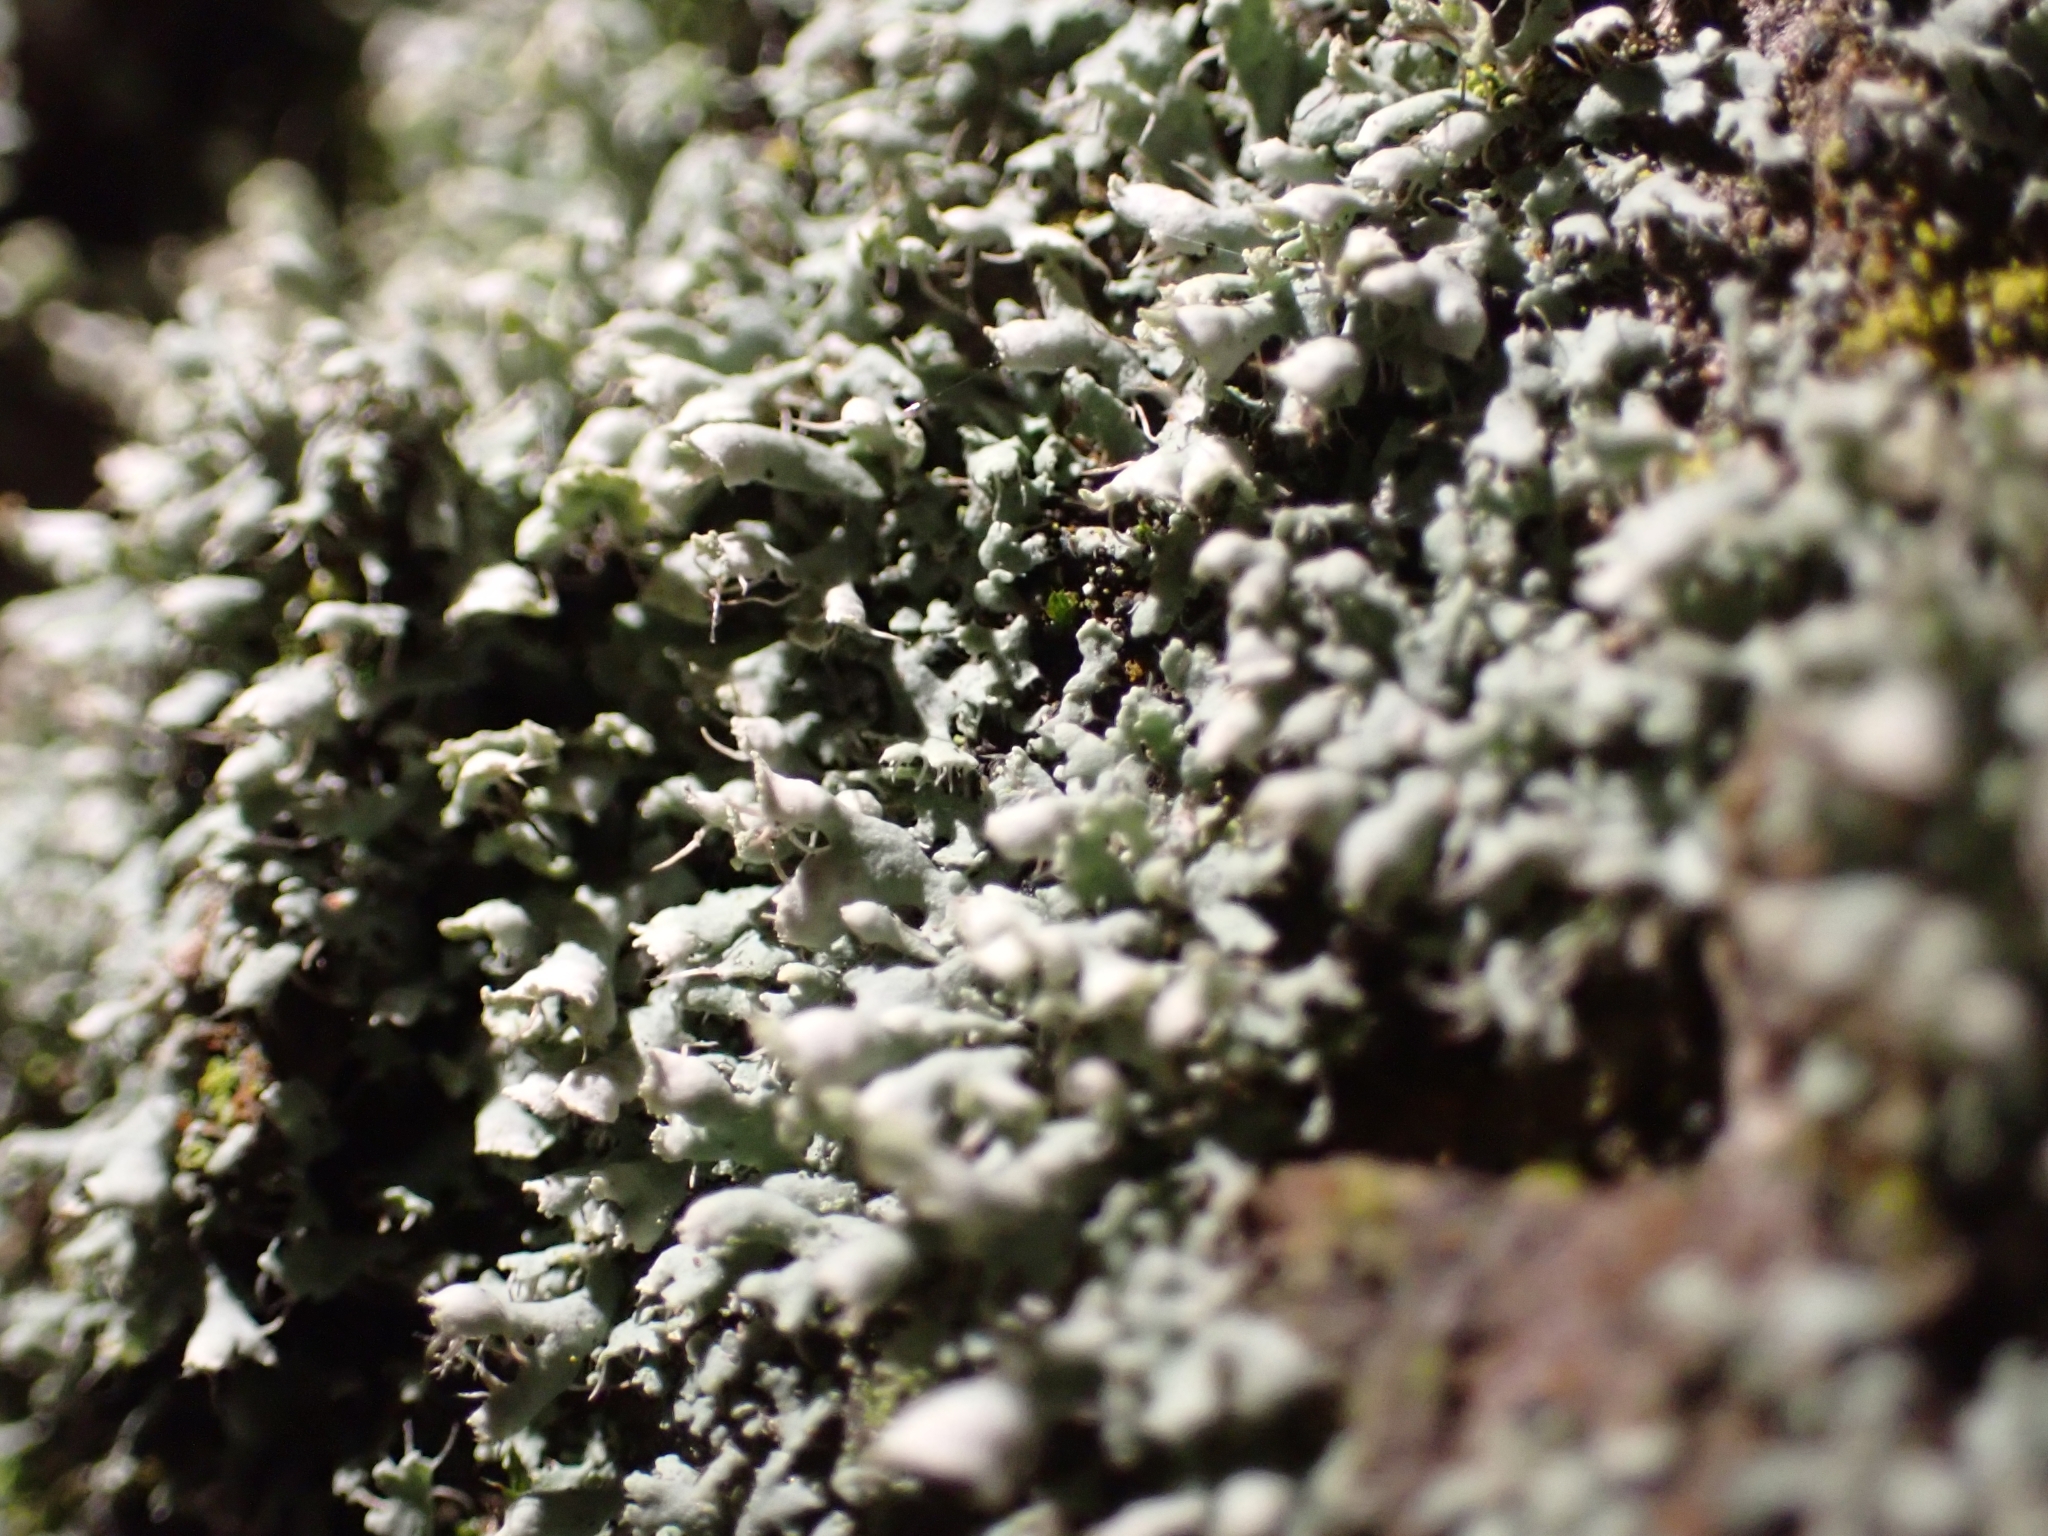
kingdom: Fungi
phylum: Ascomycota
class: Lecanoromycetes
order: Caliciales
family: Physciaceae
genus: Physcia
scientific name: Physcia adscendens
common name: Hooded rosette lichen
